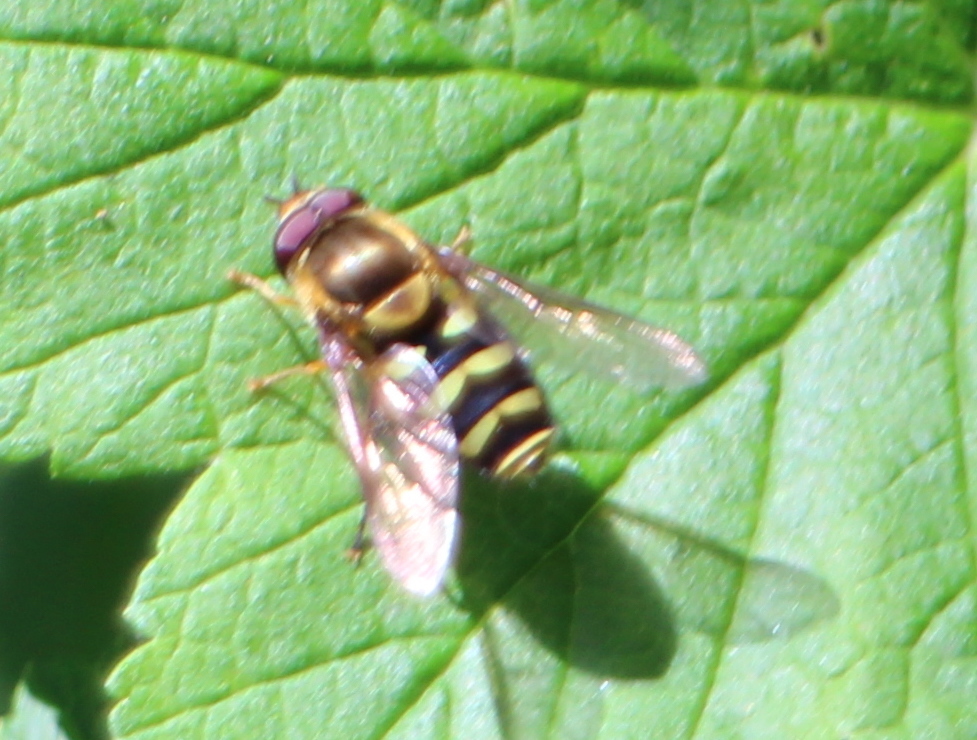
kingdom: Animalia
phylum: Arthropoda
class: Insecta
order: Diptera
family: Syrphidae
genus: Syrphus
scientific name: Syrphus opinator
